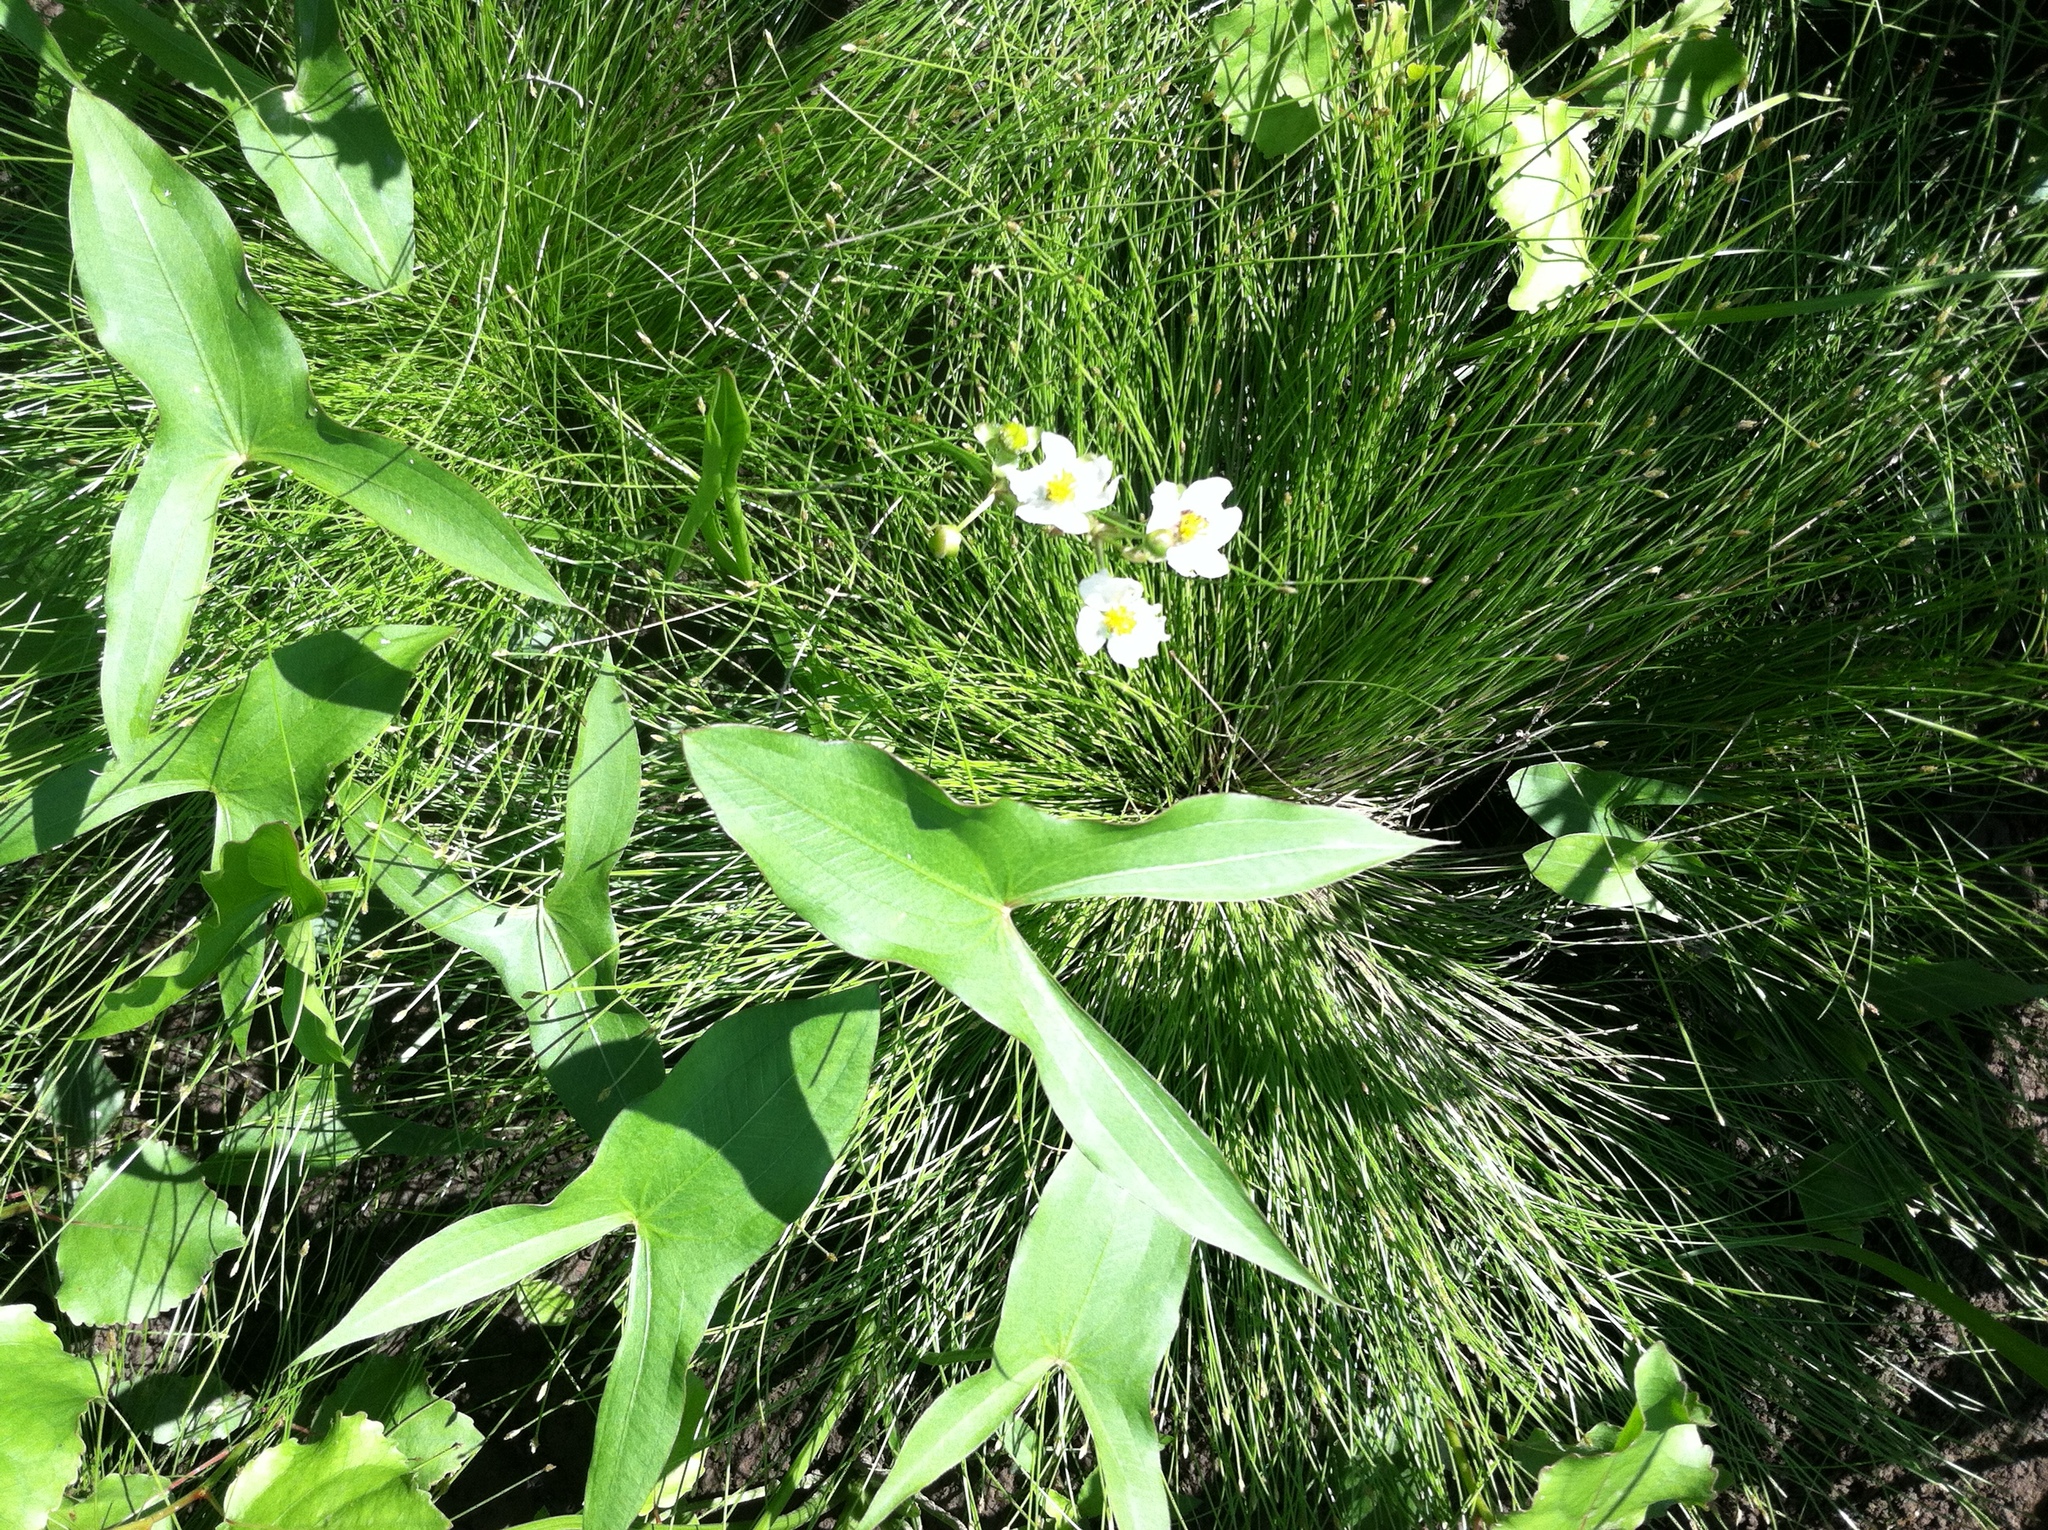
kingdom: Plantae
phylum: Tracheophyta
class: Liliopsida
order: Alismatales
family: Alismataceae
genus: Sagittaria
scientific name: Sagittaria latifolia
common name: Duck-potato
